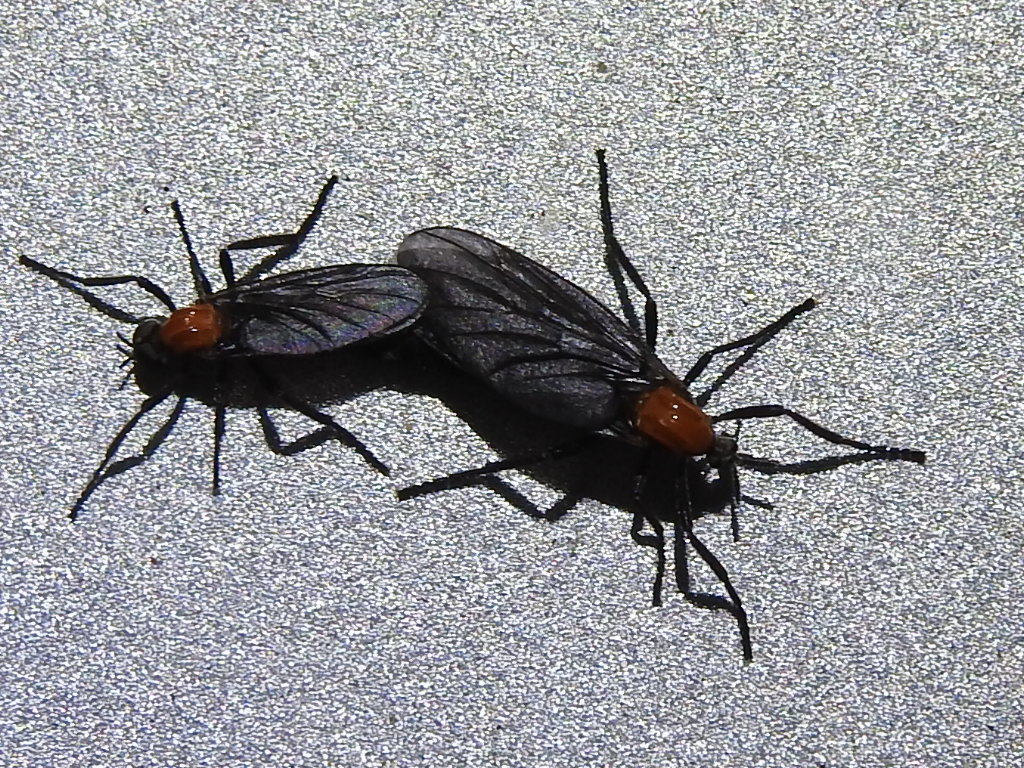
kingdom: Animalia
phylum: Arthropoda
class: Insecta
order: Diptera
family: Bibionidae
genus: Plecia
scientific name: Plecia nearctica
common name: March fly
